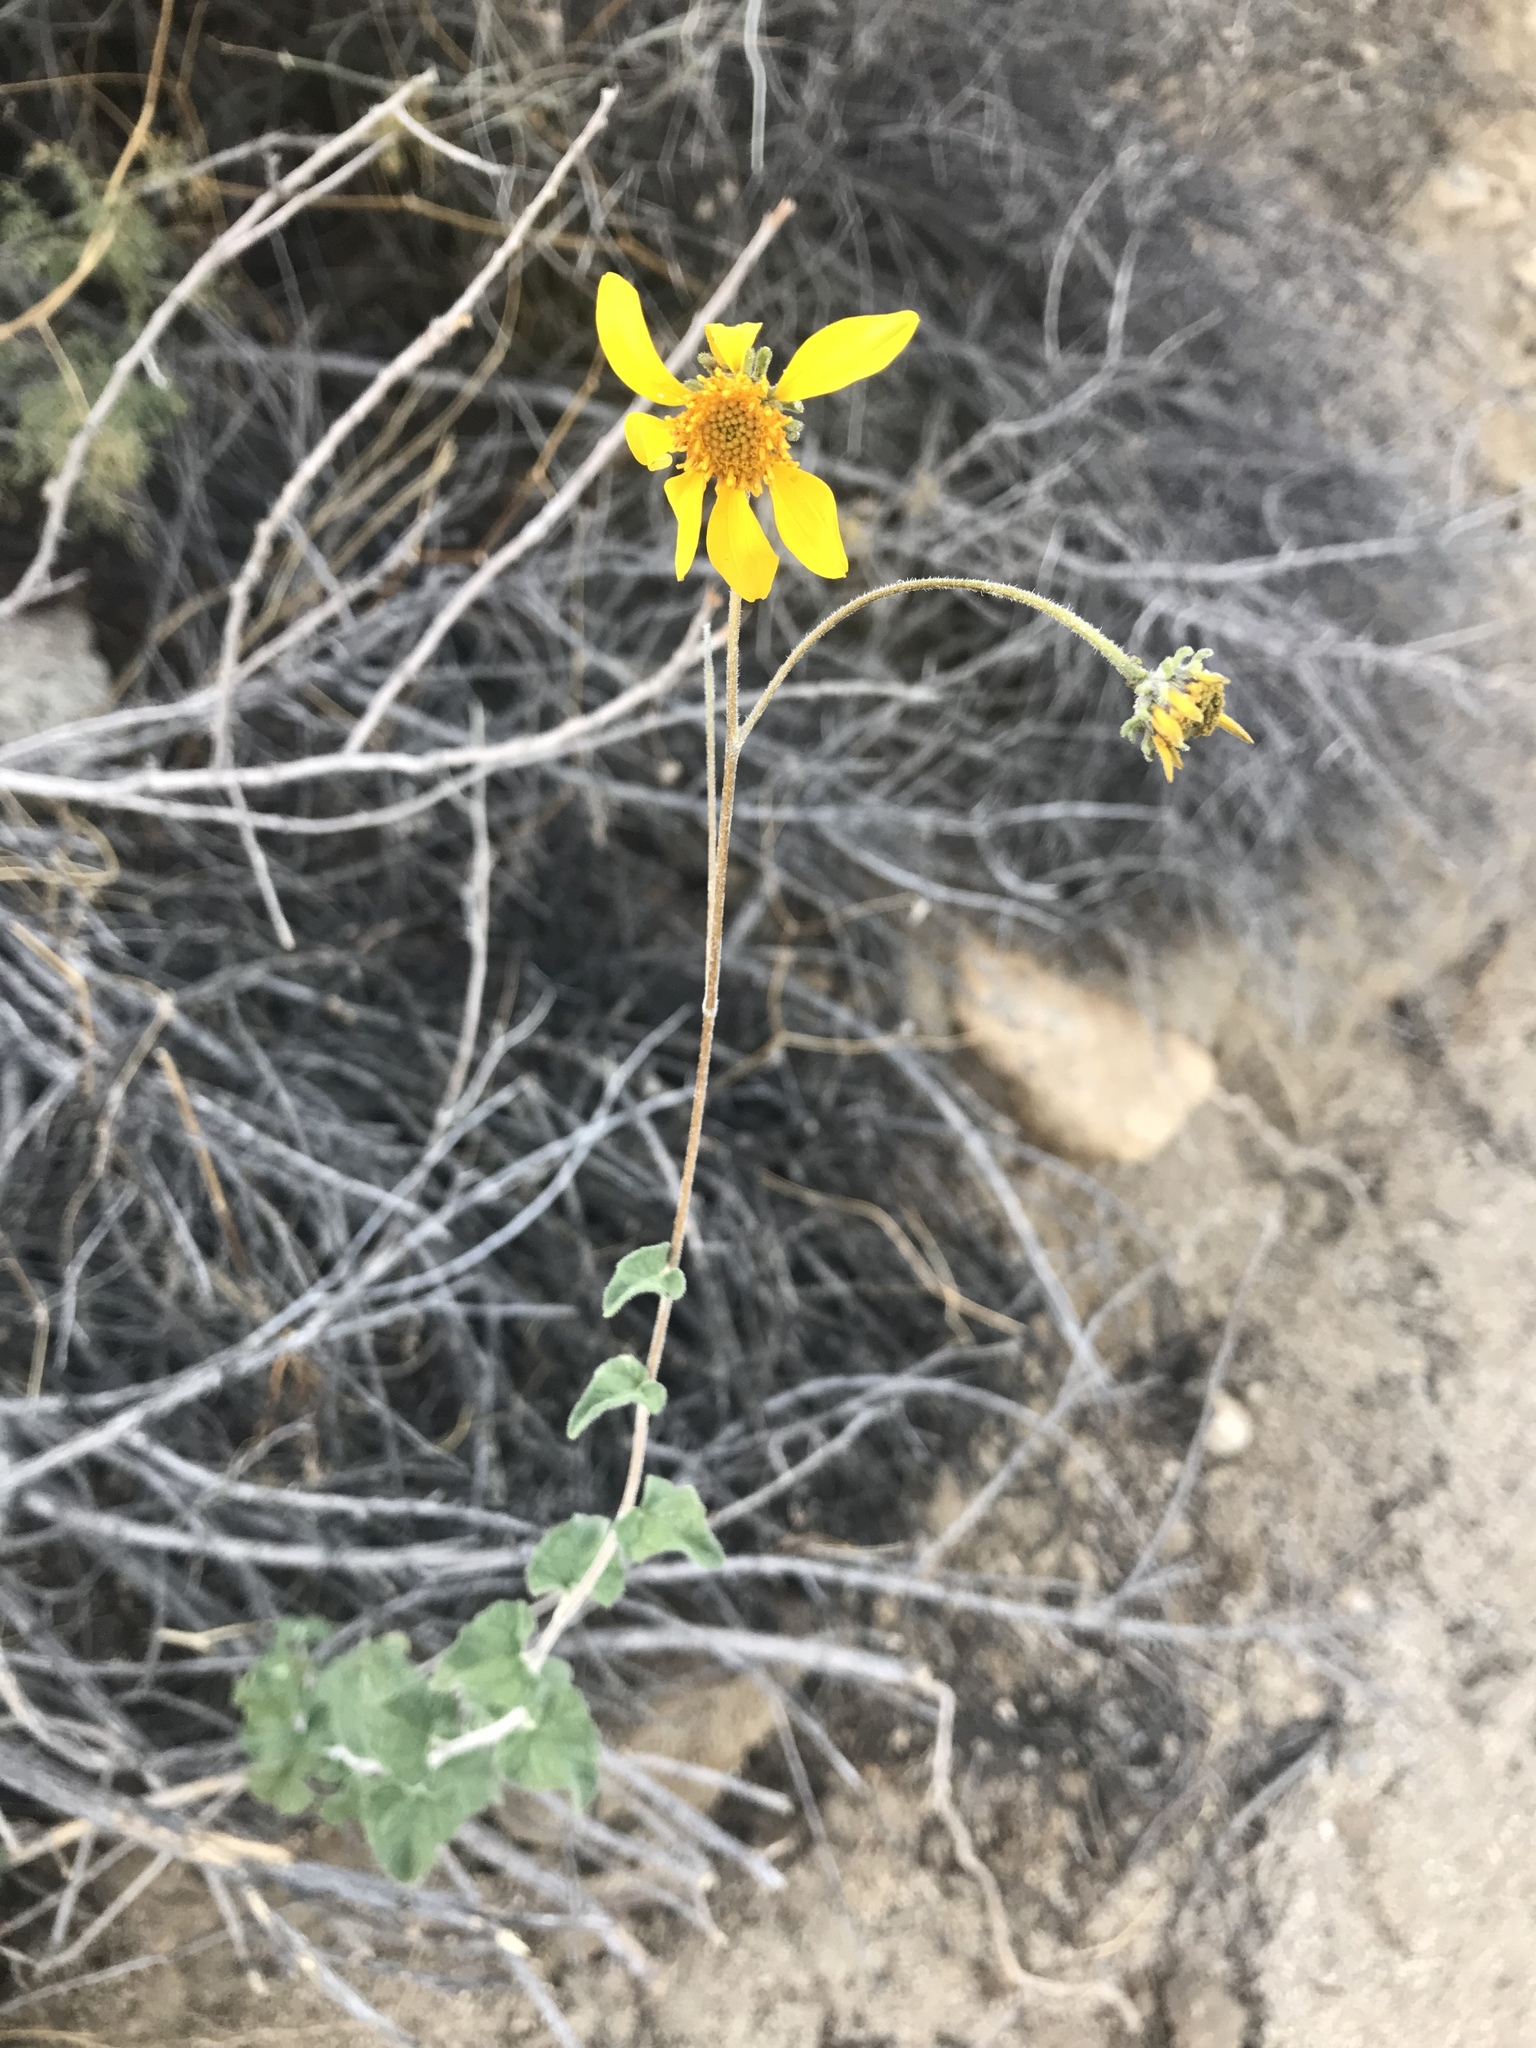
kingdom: Plantae
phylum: Tracheophyta
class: Magnoliopsida
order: Asterales
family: Asteraceae
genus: Bahiopsis
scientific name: Bahiopsis parishii
